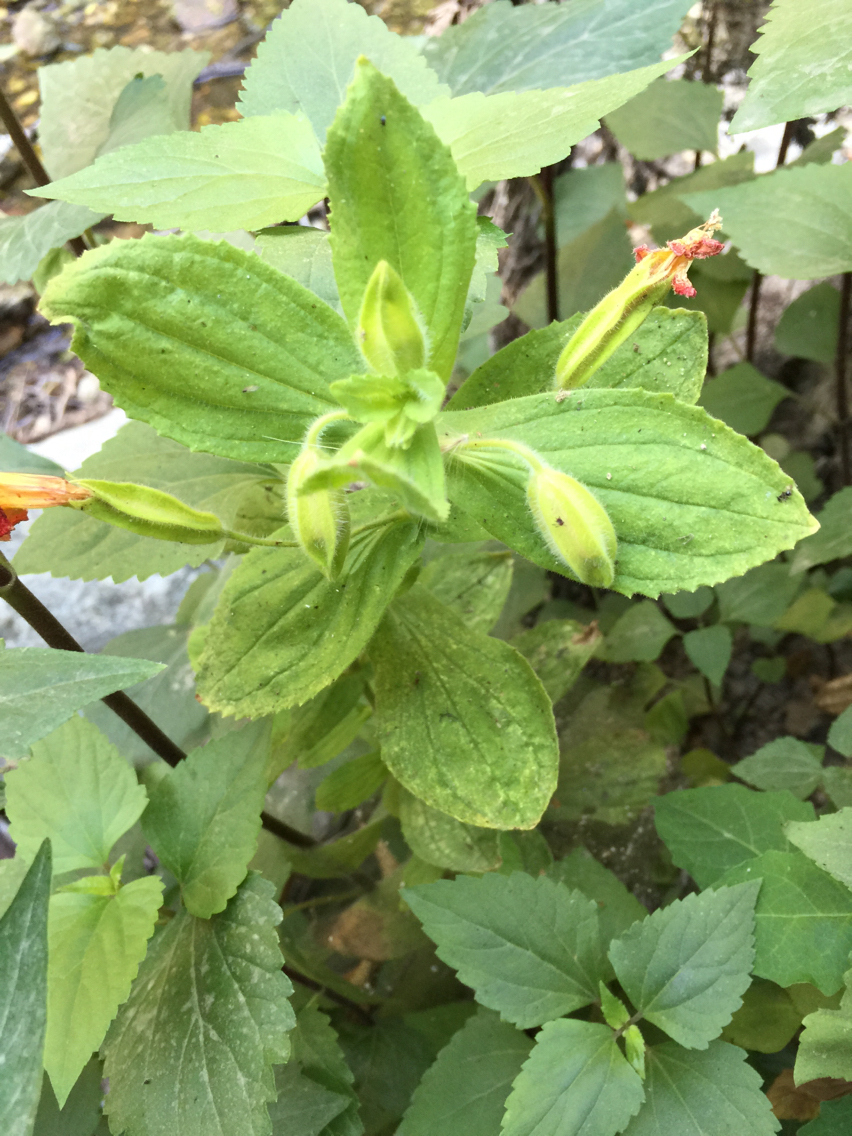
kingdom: Plantae
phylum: Tracheophyta
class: Magnoliopsida
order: Lamiales
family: Phrymaceae
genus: Erythranthe
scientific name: Erythranthe cardinalis
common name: Scarlet monkey-flower
